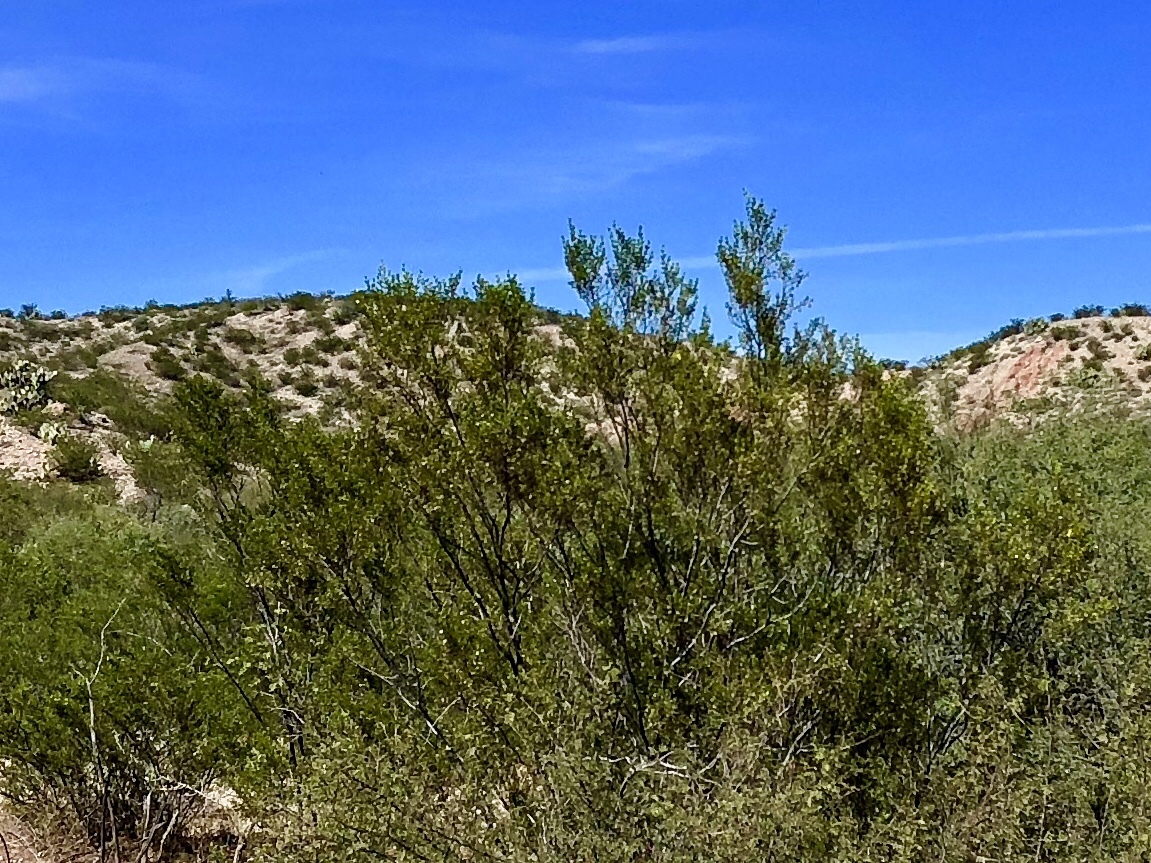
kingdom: Plantae
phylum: Tracheophyta
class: Magnoliopsida
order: Zygophyllales
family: Zygophyllaceae
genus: Larrea
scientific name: Larrea tridentata
